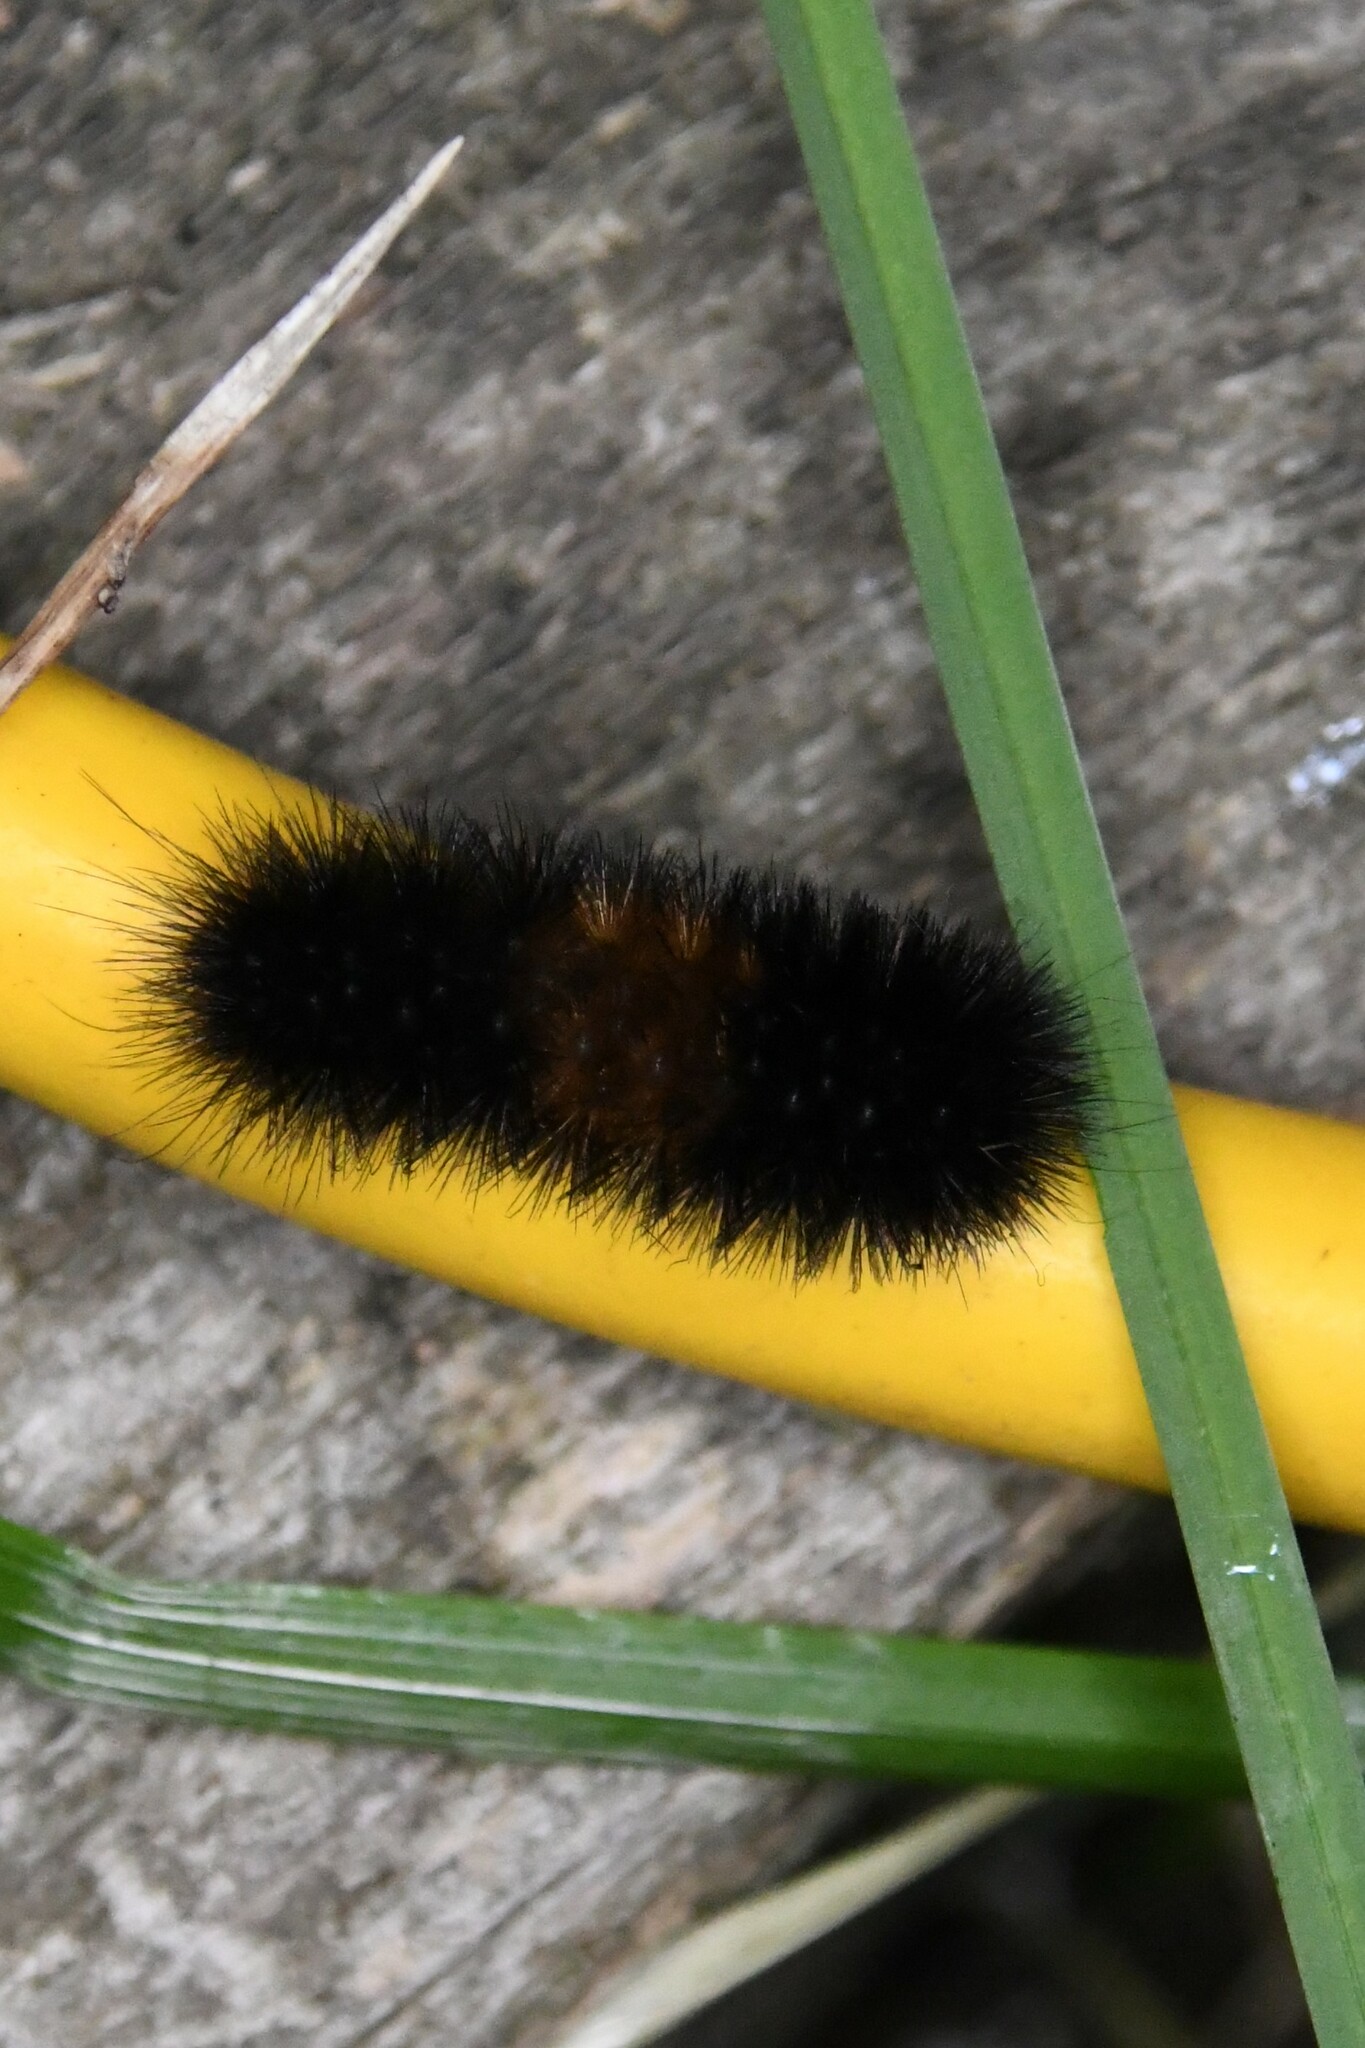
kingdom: Animalia
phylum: Arthropoda
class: Insecta
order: Lepidoptera
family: Erebidae
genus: Pyrrharctia
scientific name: Pyrrharctia isabella
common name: Isabella tiger moth
